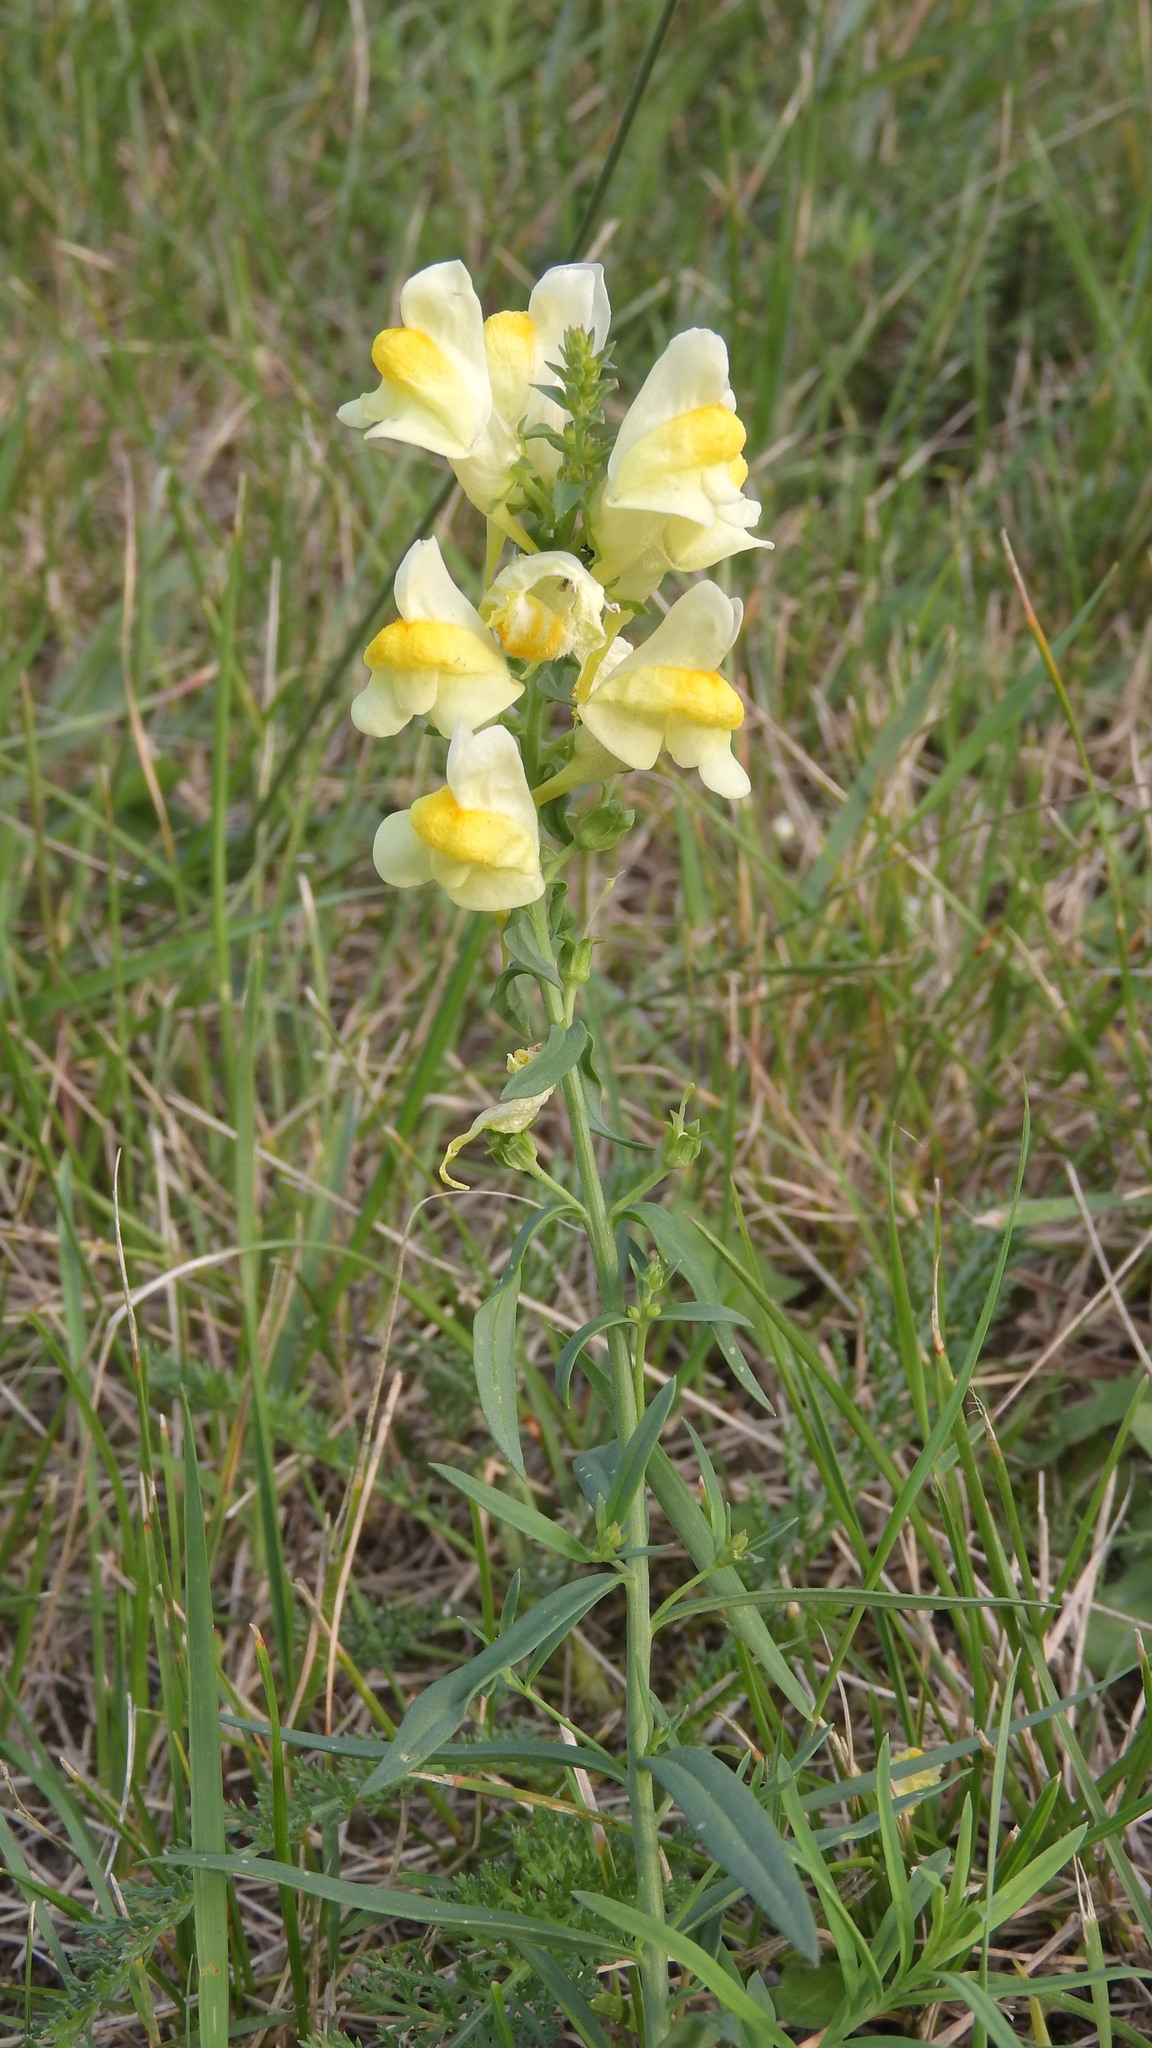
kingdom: Plantae
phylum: Tracheophyta
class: Magnoliopsida
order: Lamiales
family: Plantaginaceae
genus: Linaria
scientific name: Linaria vulgaris
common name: Butter and eggs
